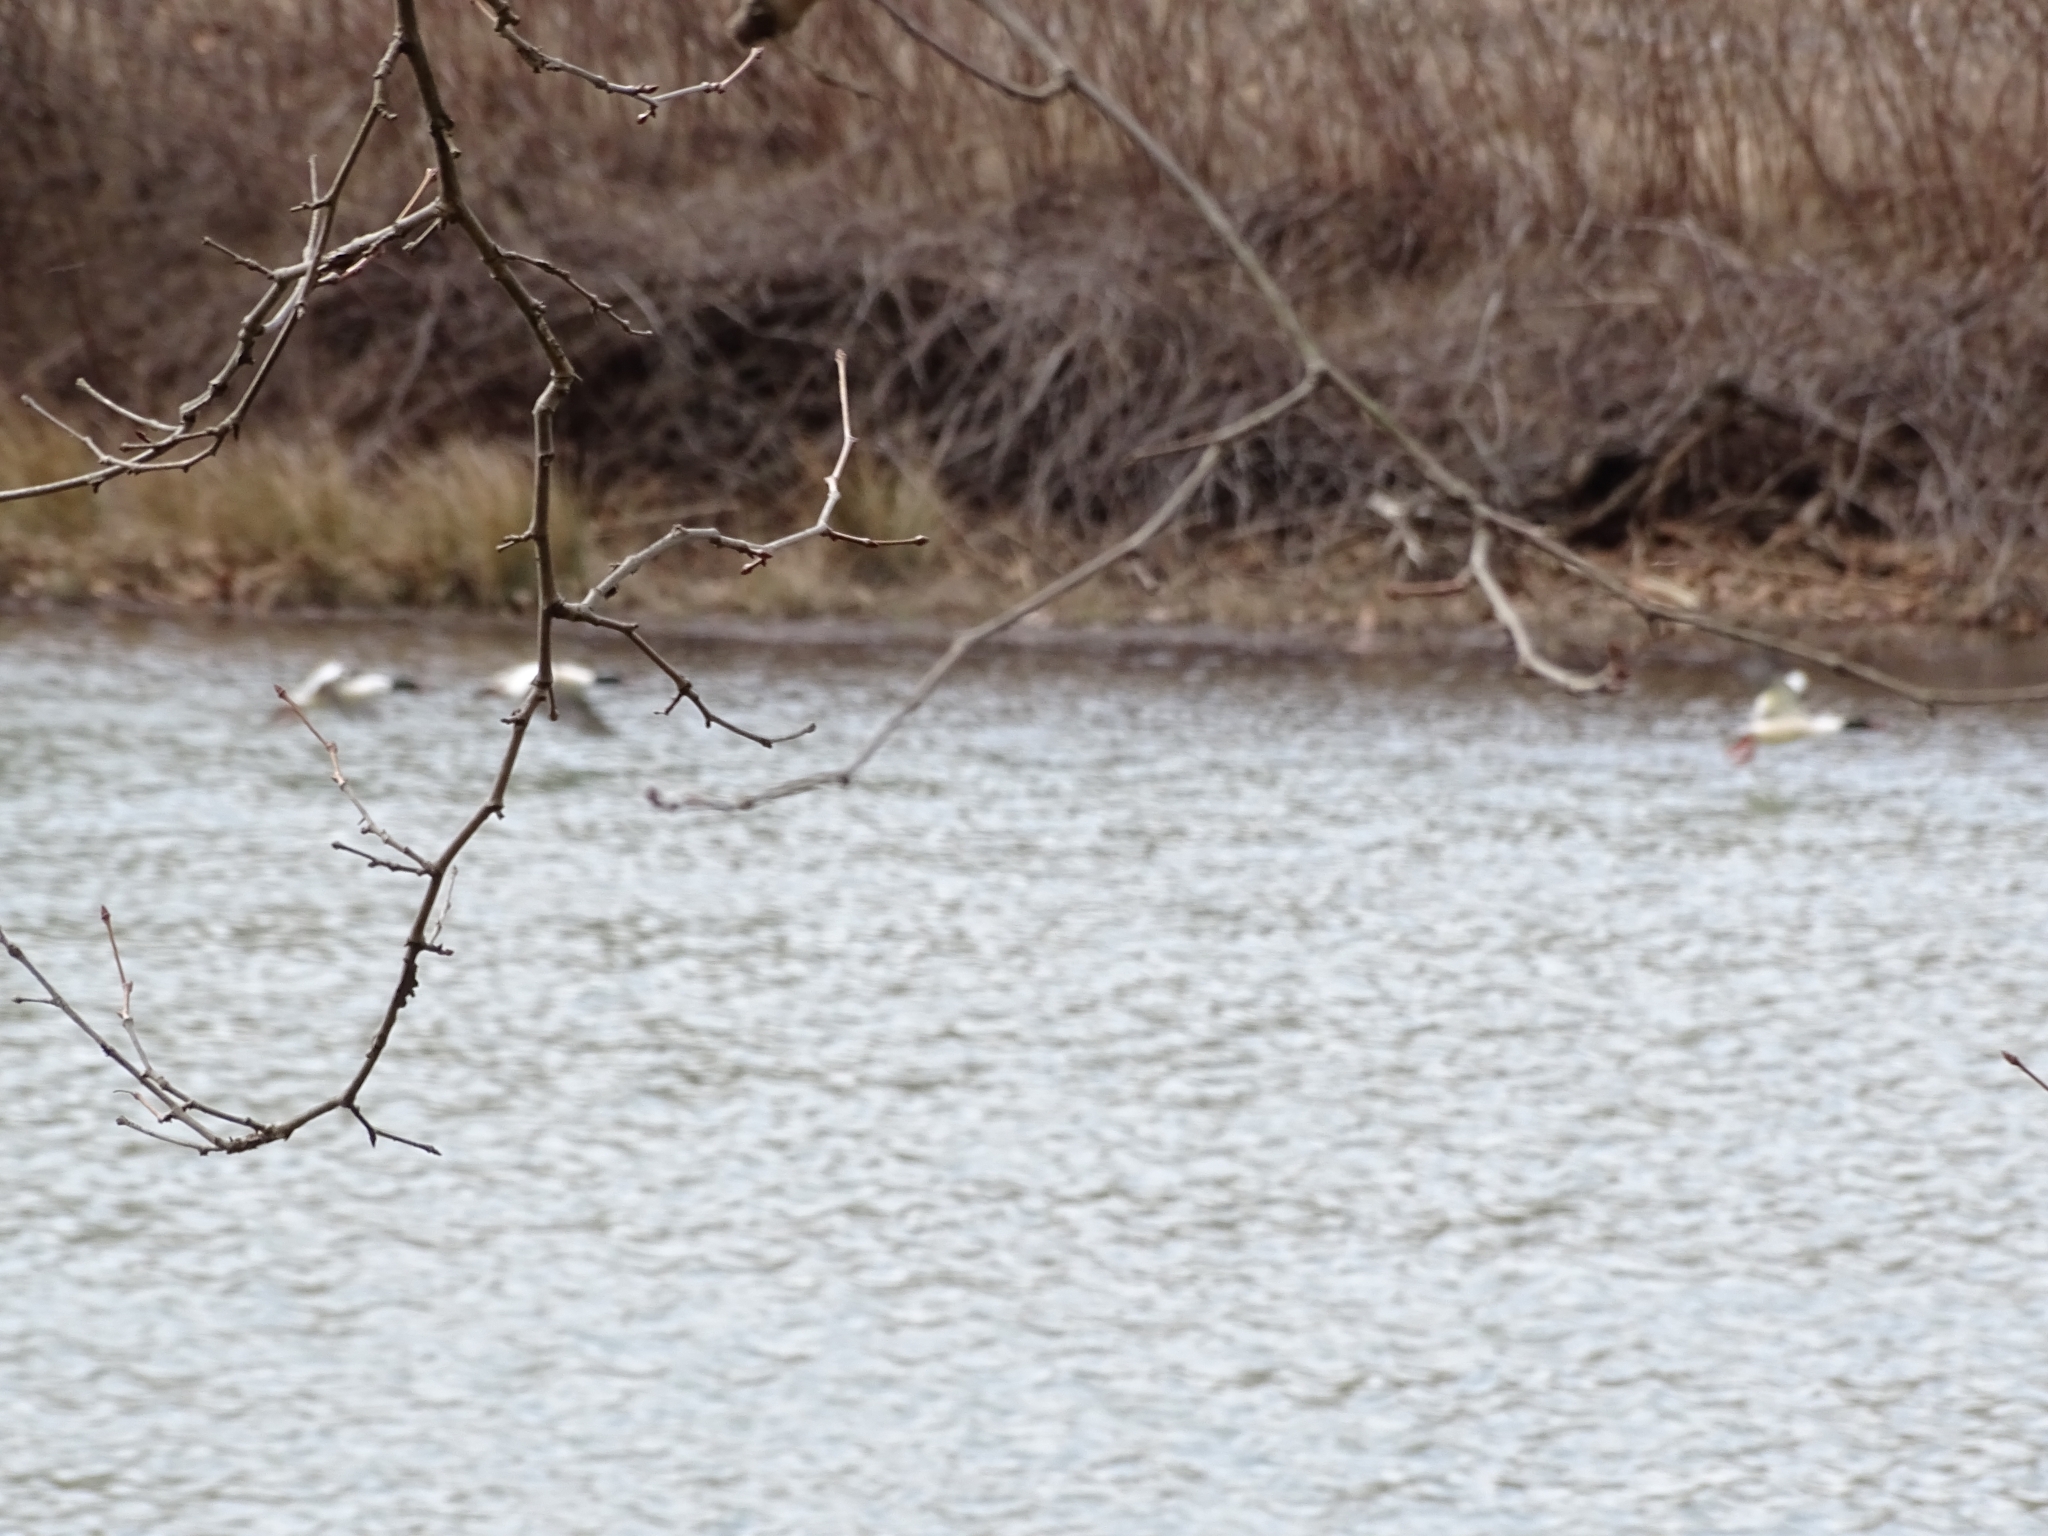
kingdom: Animalia
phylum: Chordata
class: Aves
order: Anseriformes
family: Anatidae
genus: Mergus
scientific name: Mergus merganser
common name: Common merganser
